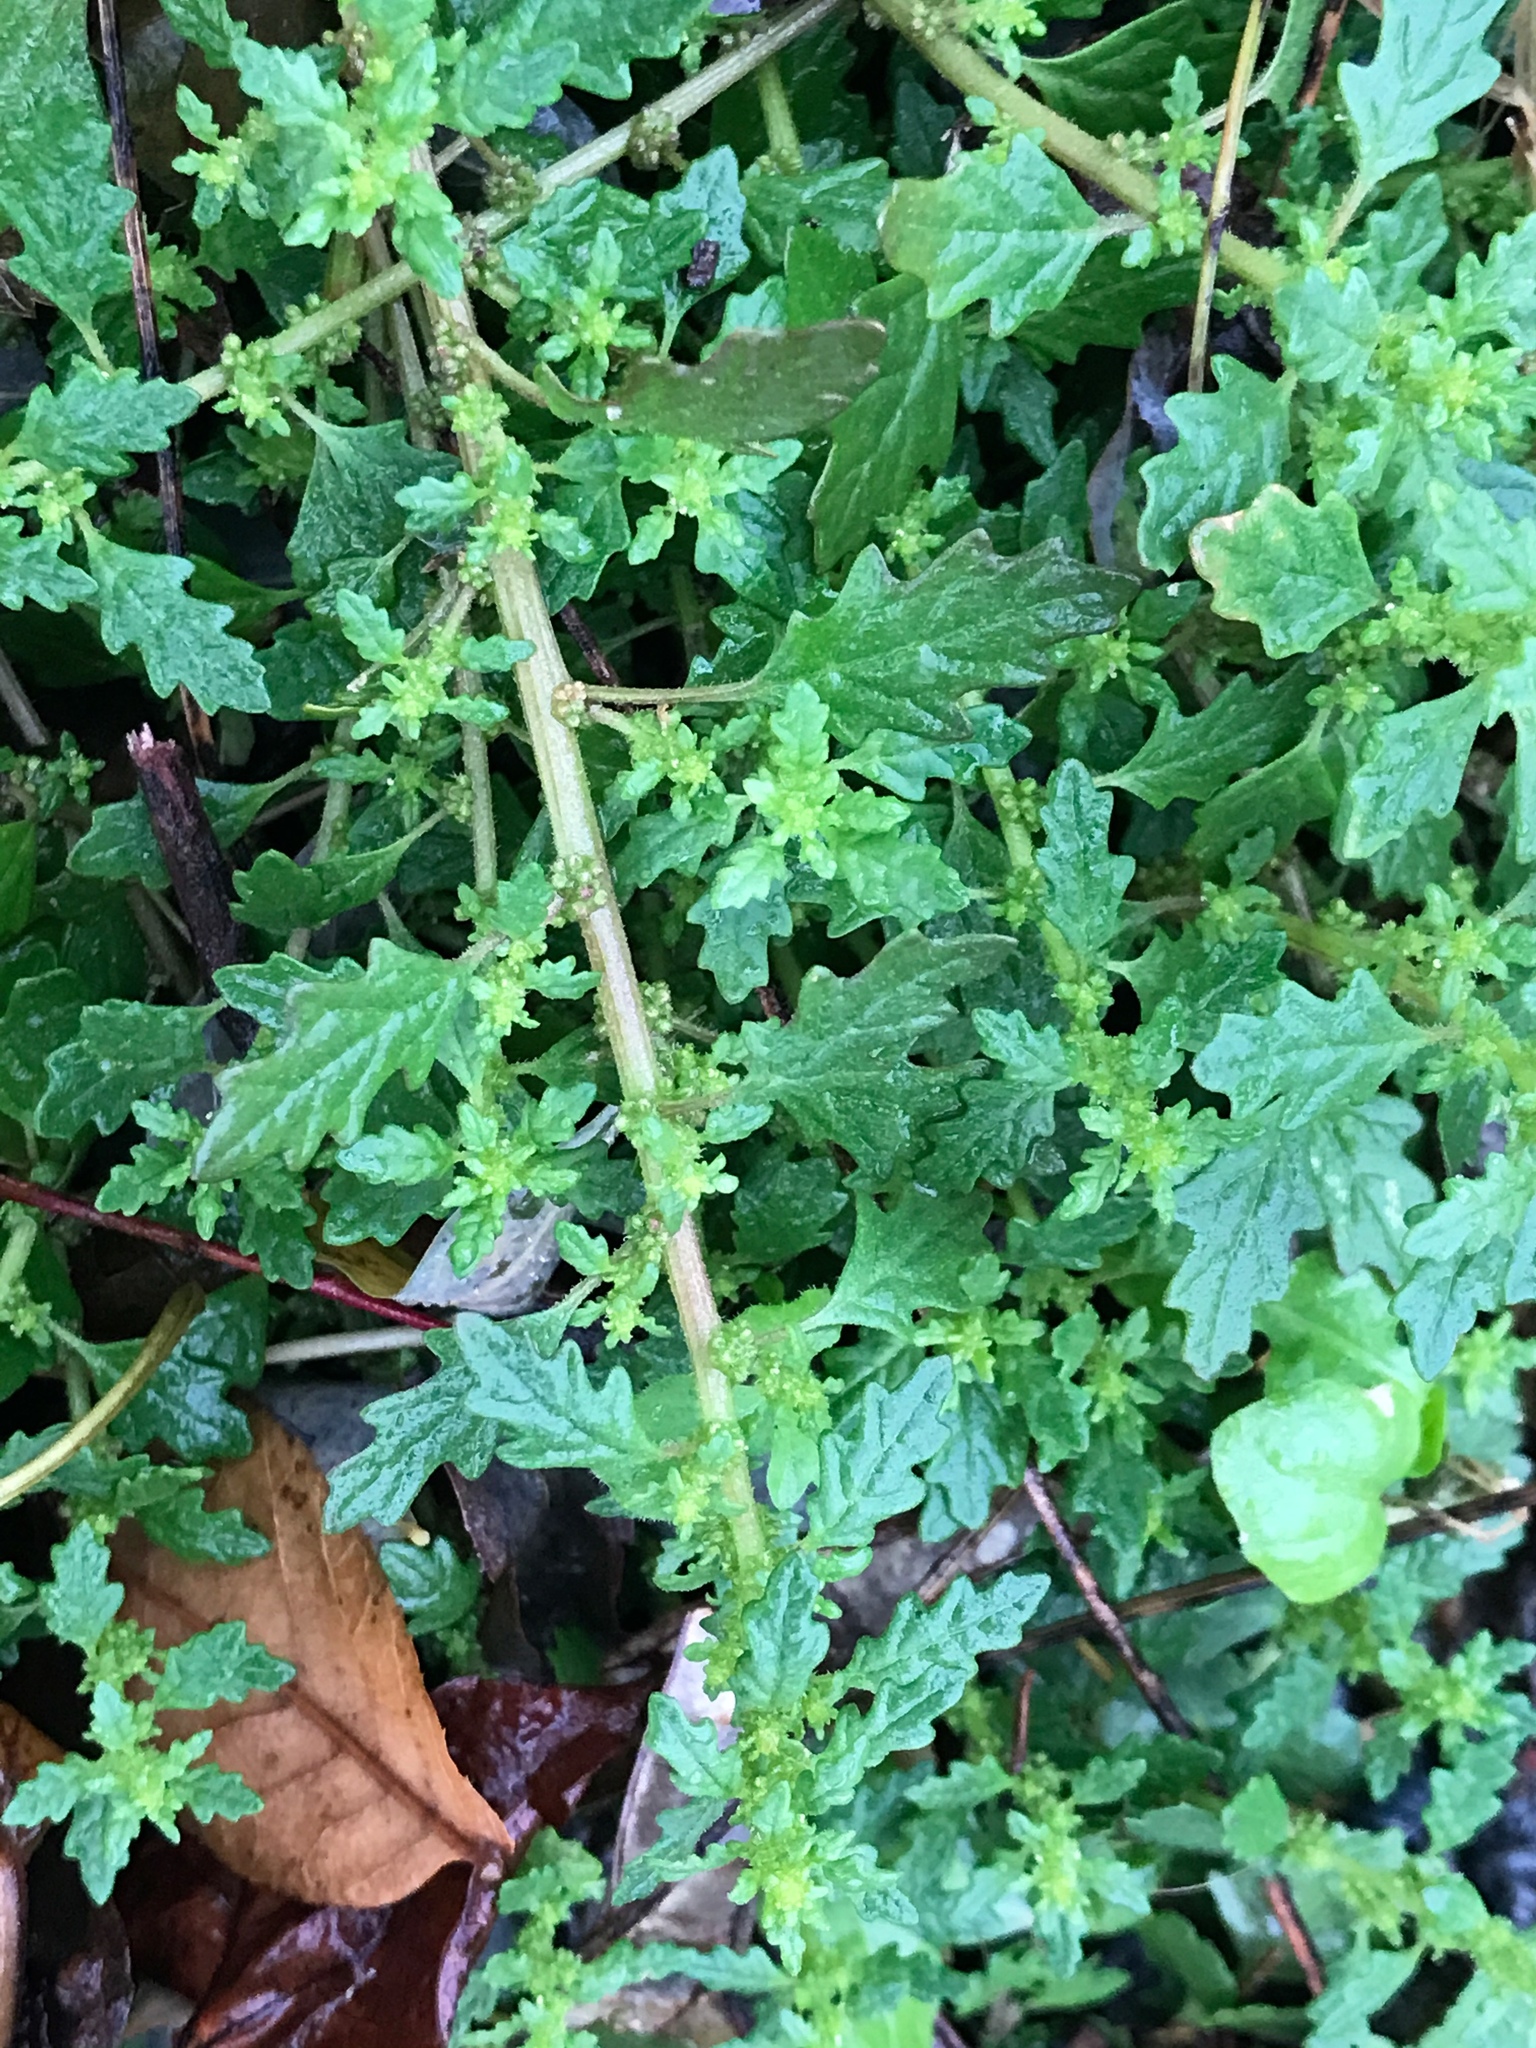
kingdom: Plantae
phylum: Tracheophyta
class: Magnoliopsida
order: Caryophyllales
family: Amaranthaceae
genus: Dysphania
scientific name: Dysphania pumilio
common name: Clammy goosefoot
